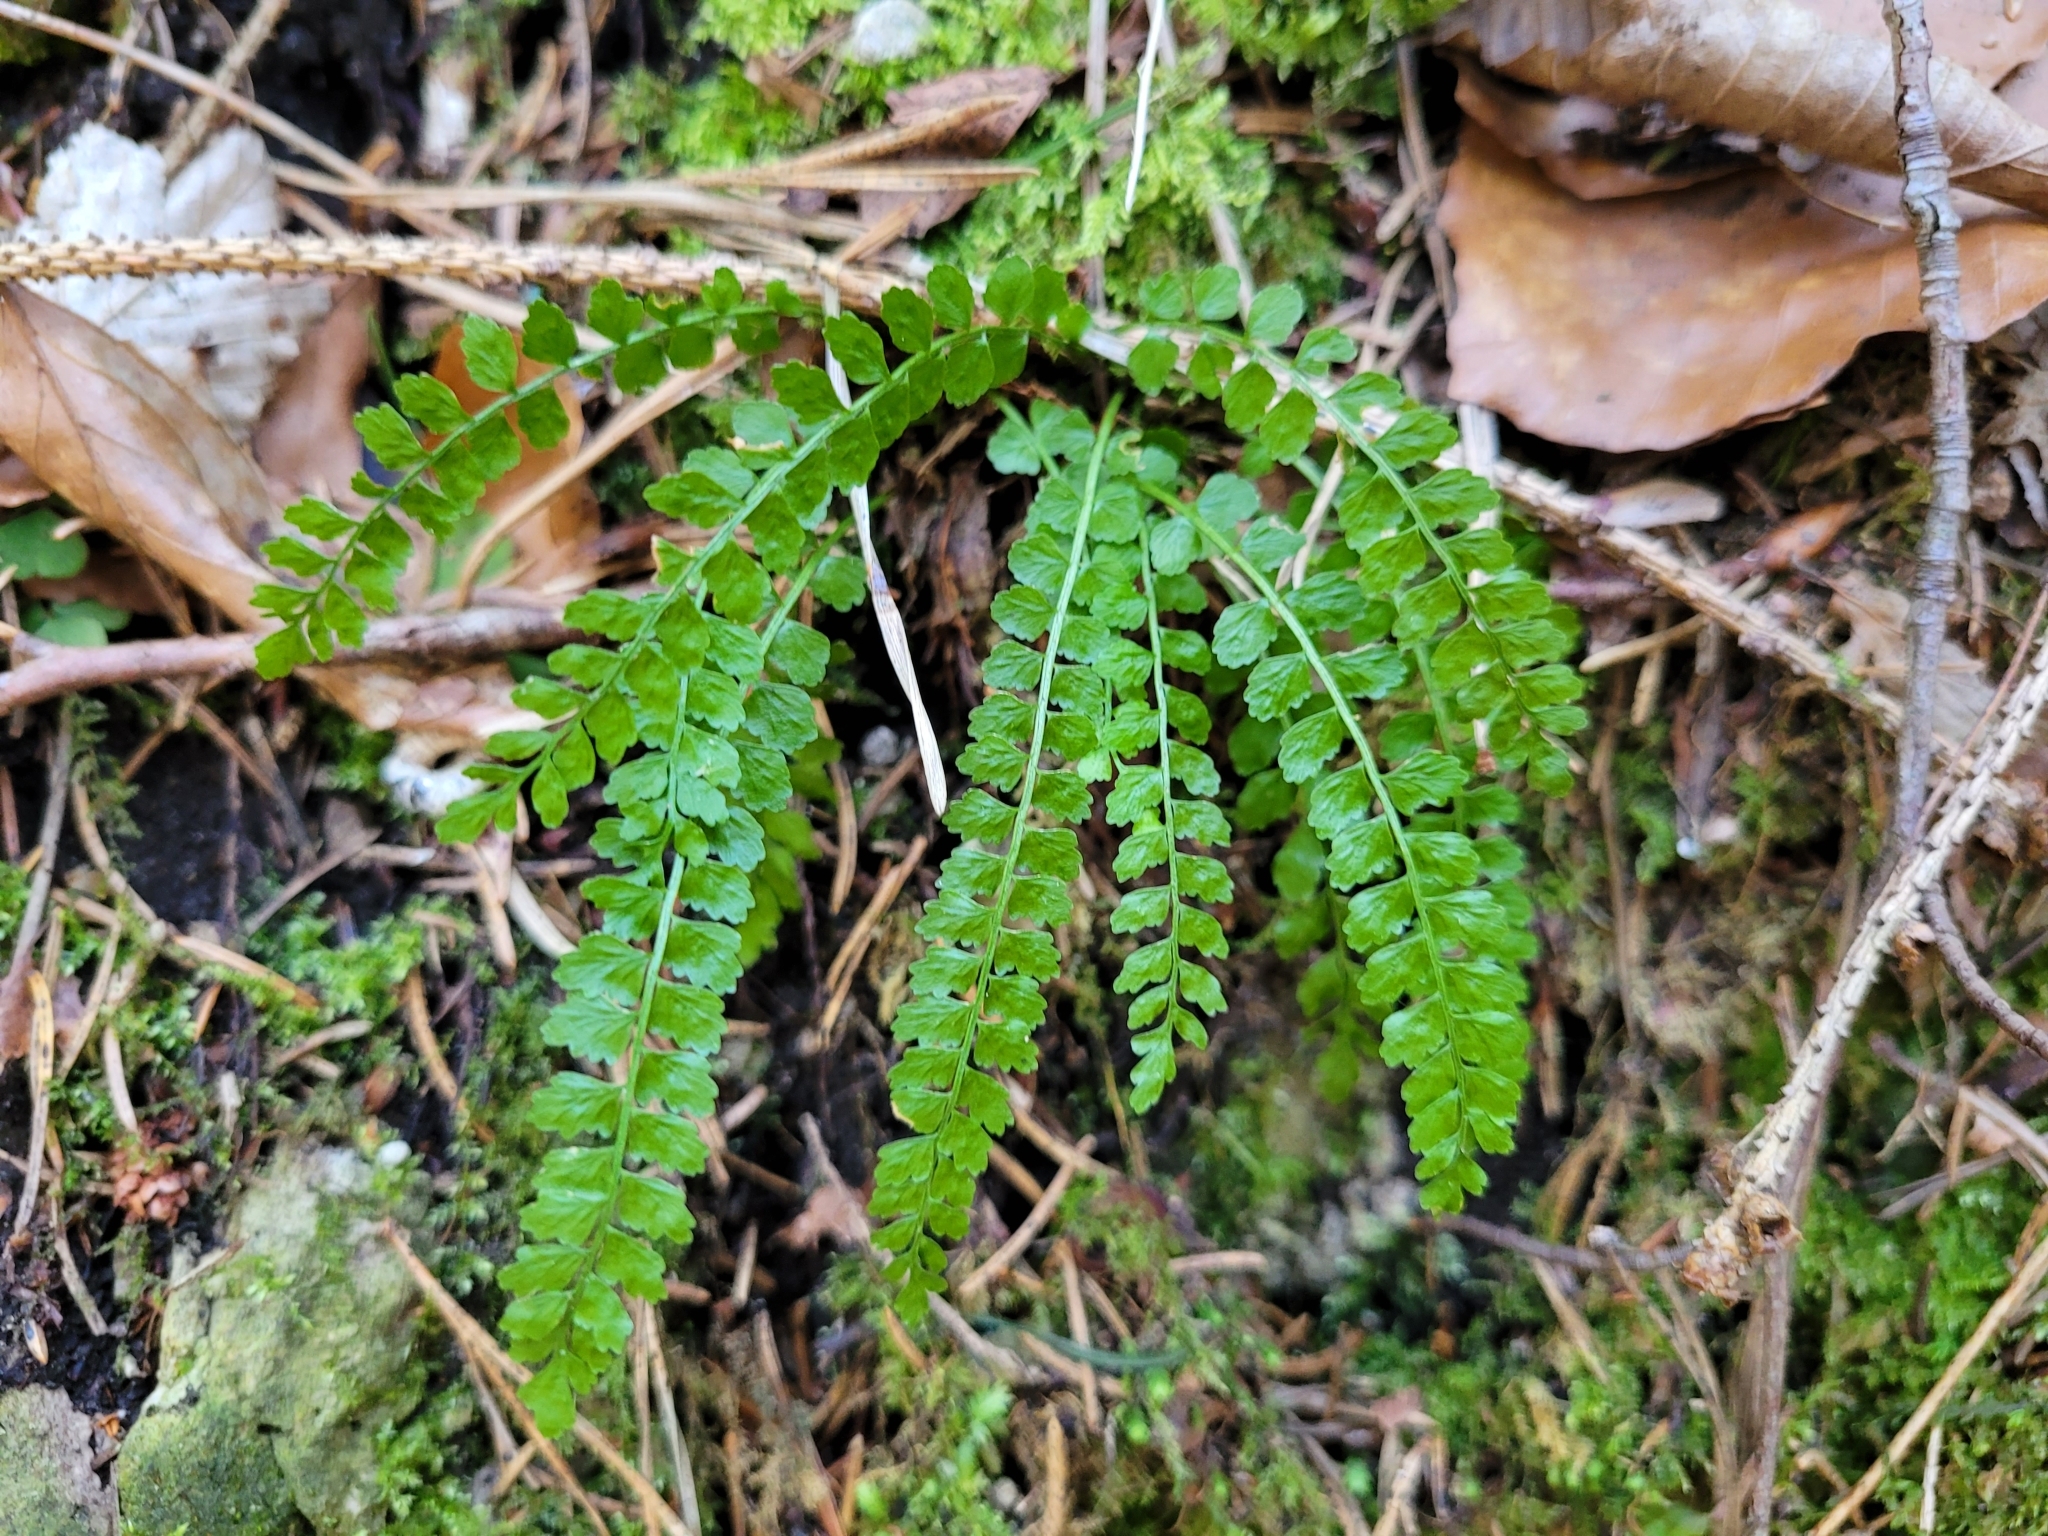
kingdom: Plantae
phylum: Tracheophyta
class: Polypodiopsida
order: Polypodiales
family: Aspleniaceae
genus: Asplenium
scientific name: Asplenium viride
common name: Green spleenwort
